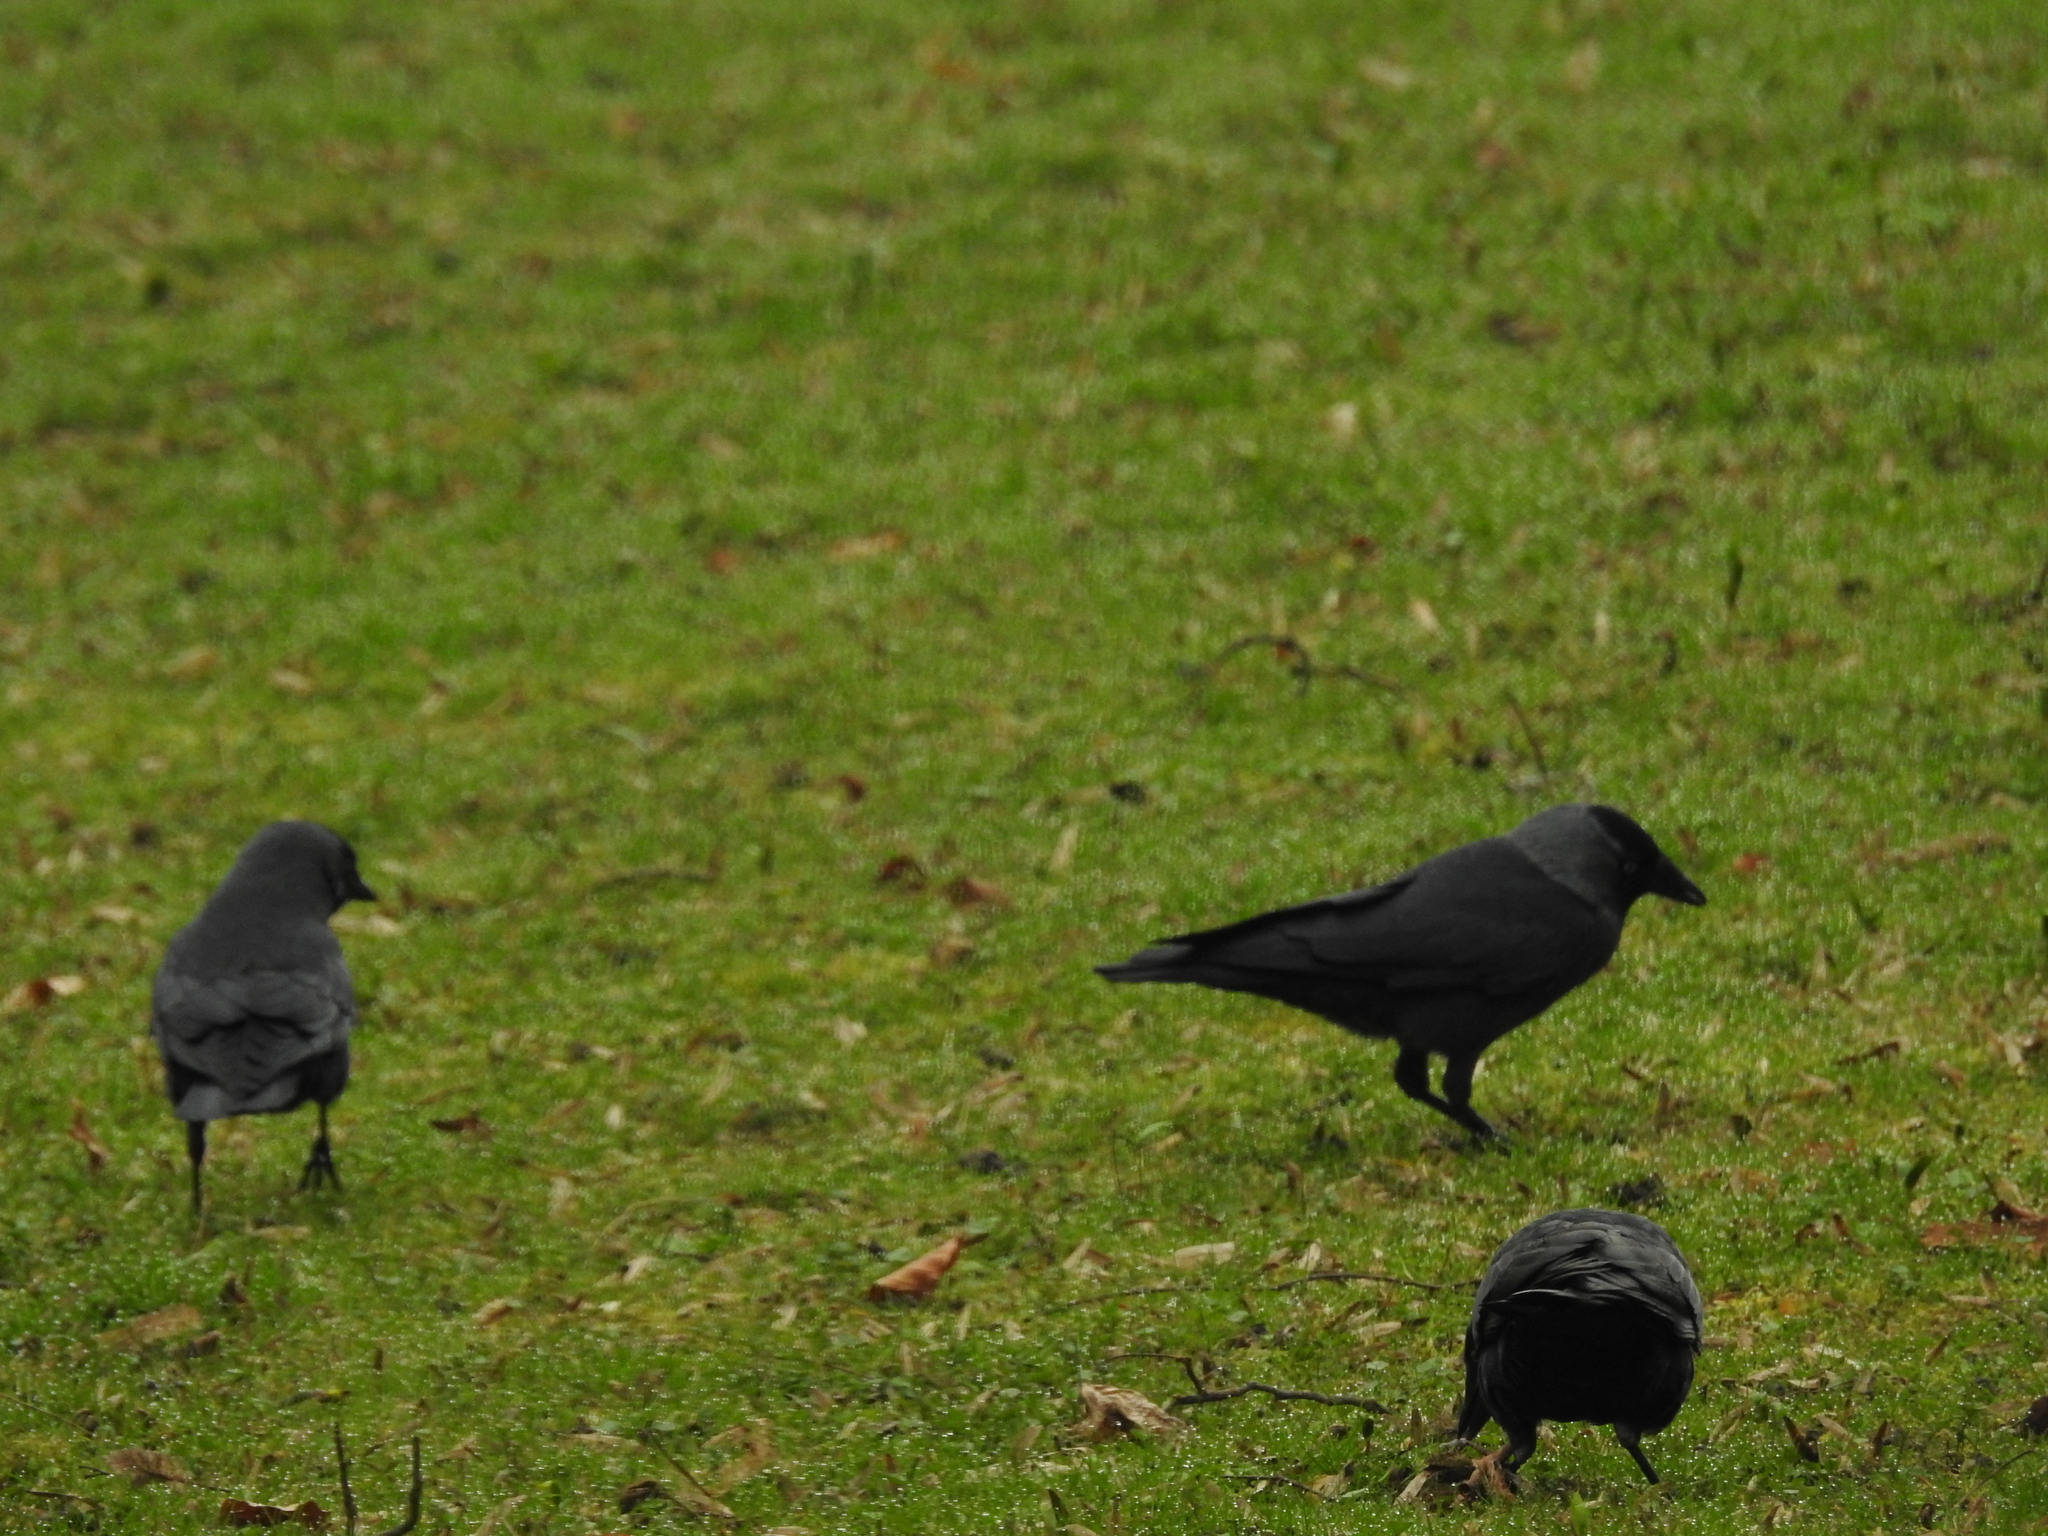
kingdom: Animalia
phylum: Chordata
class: Aves
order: Passeriformes
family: Corvidae
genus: Coloeus
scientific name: Coloeus monedula
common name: Western jackdaw
